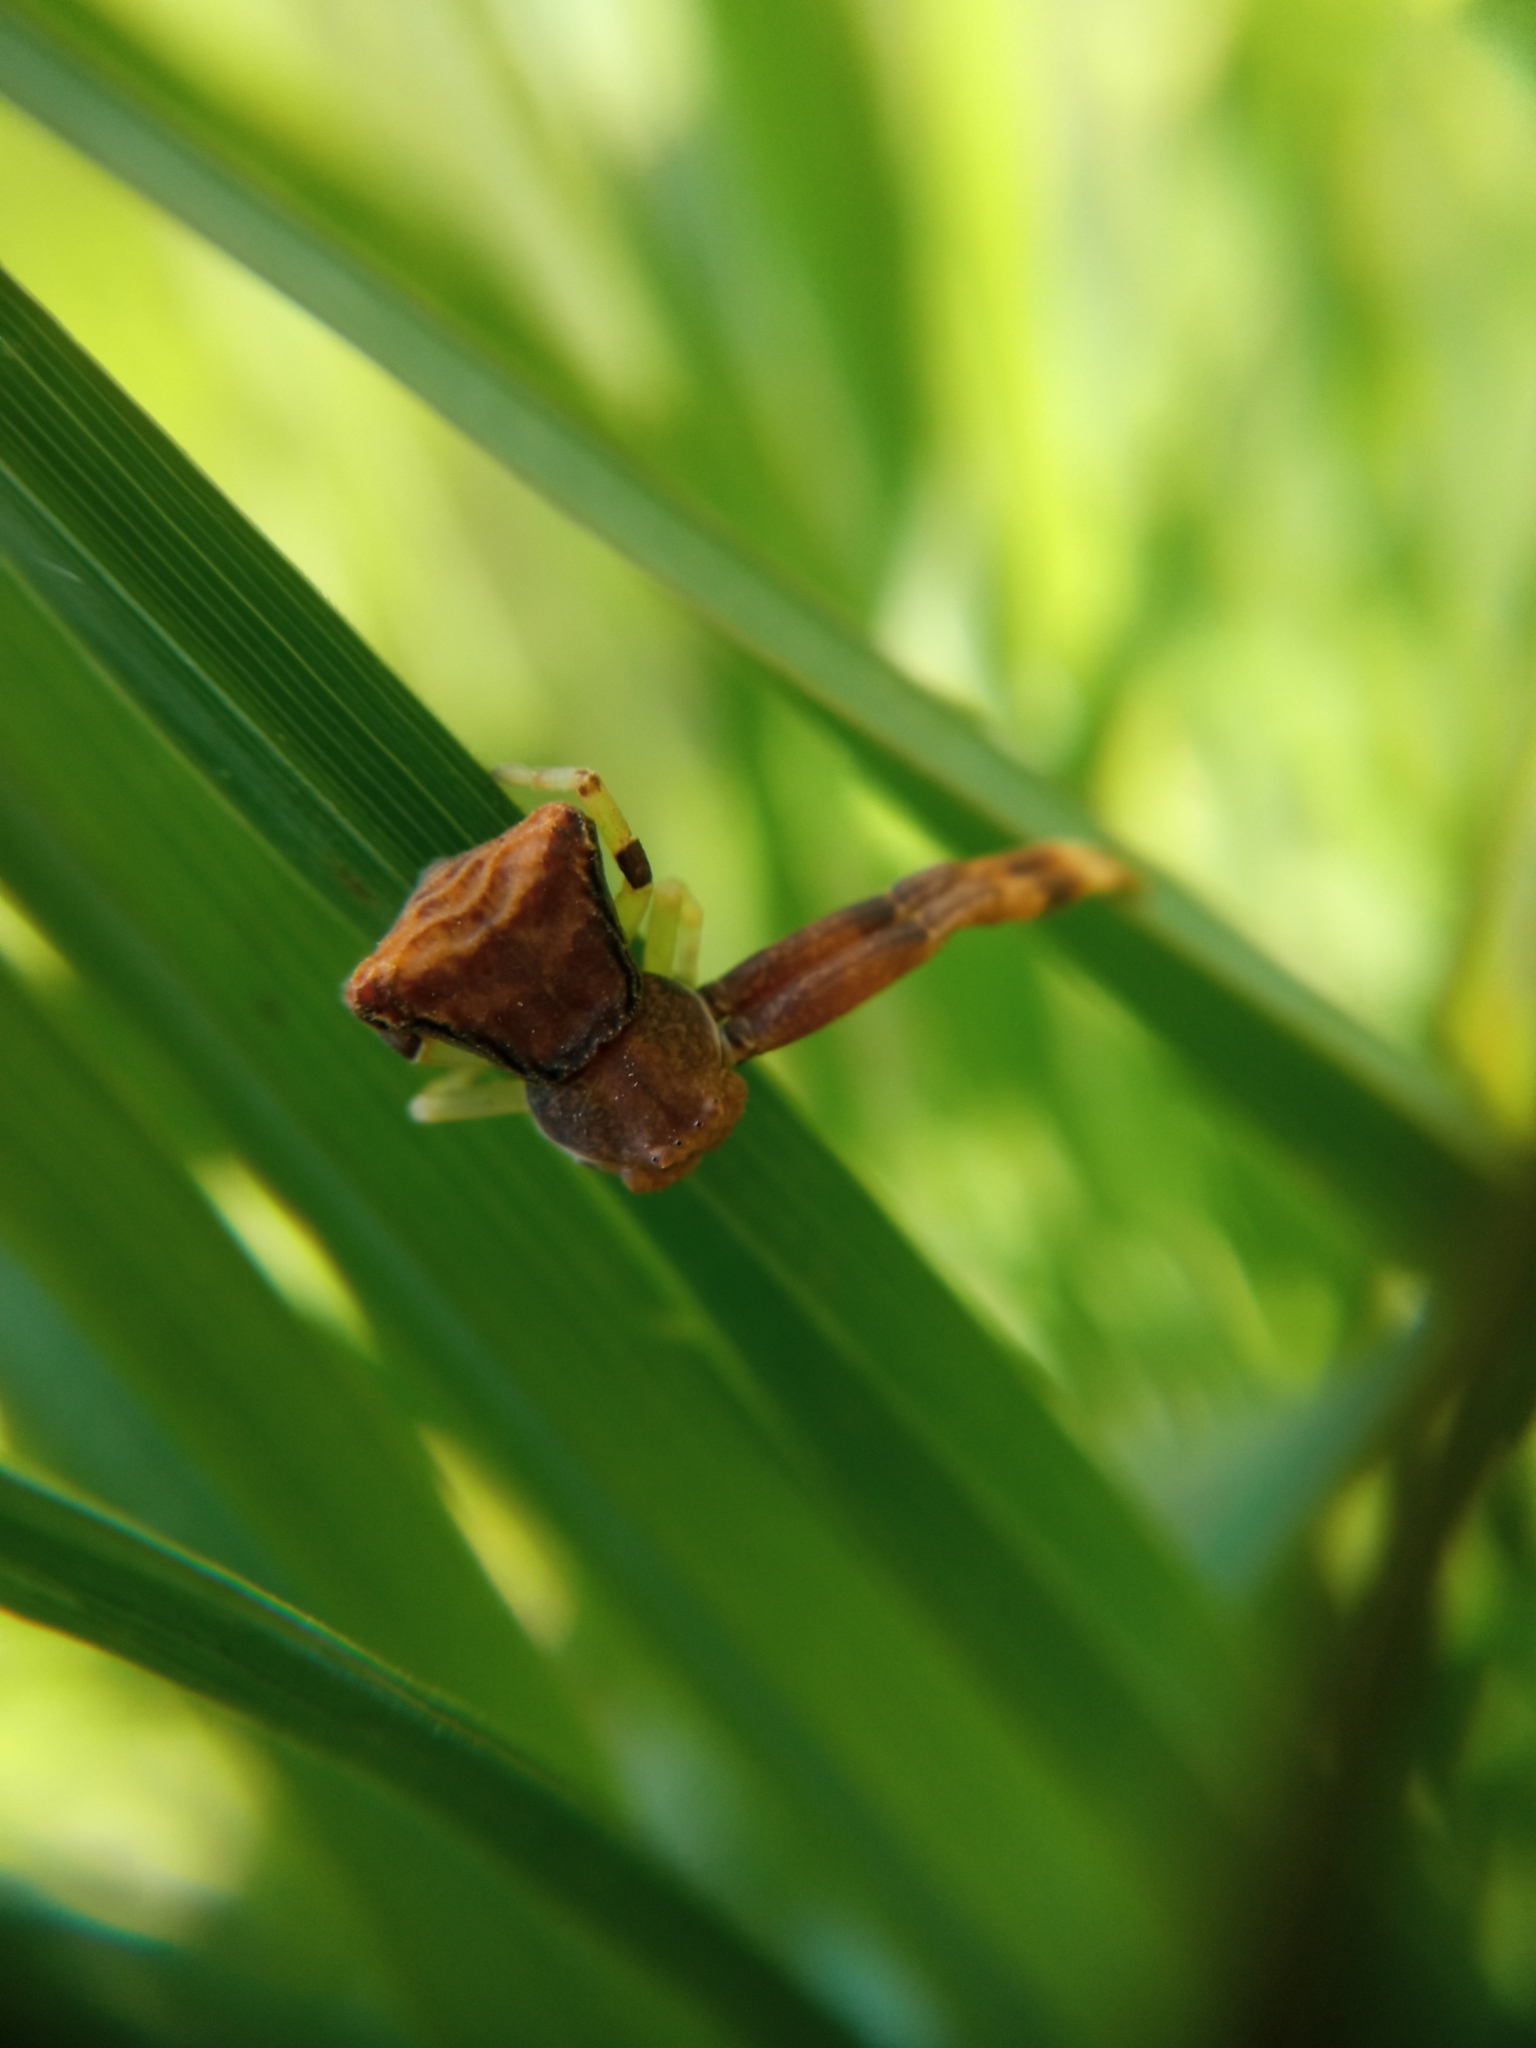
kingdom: Animalia
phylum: Arthropoda
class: Arachnida
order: Araneae
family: Thomisidae
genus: Pistius
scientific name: Pistius truncatus
